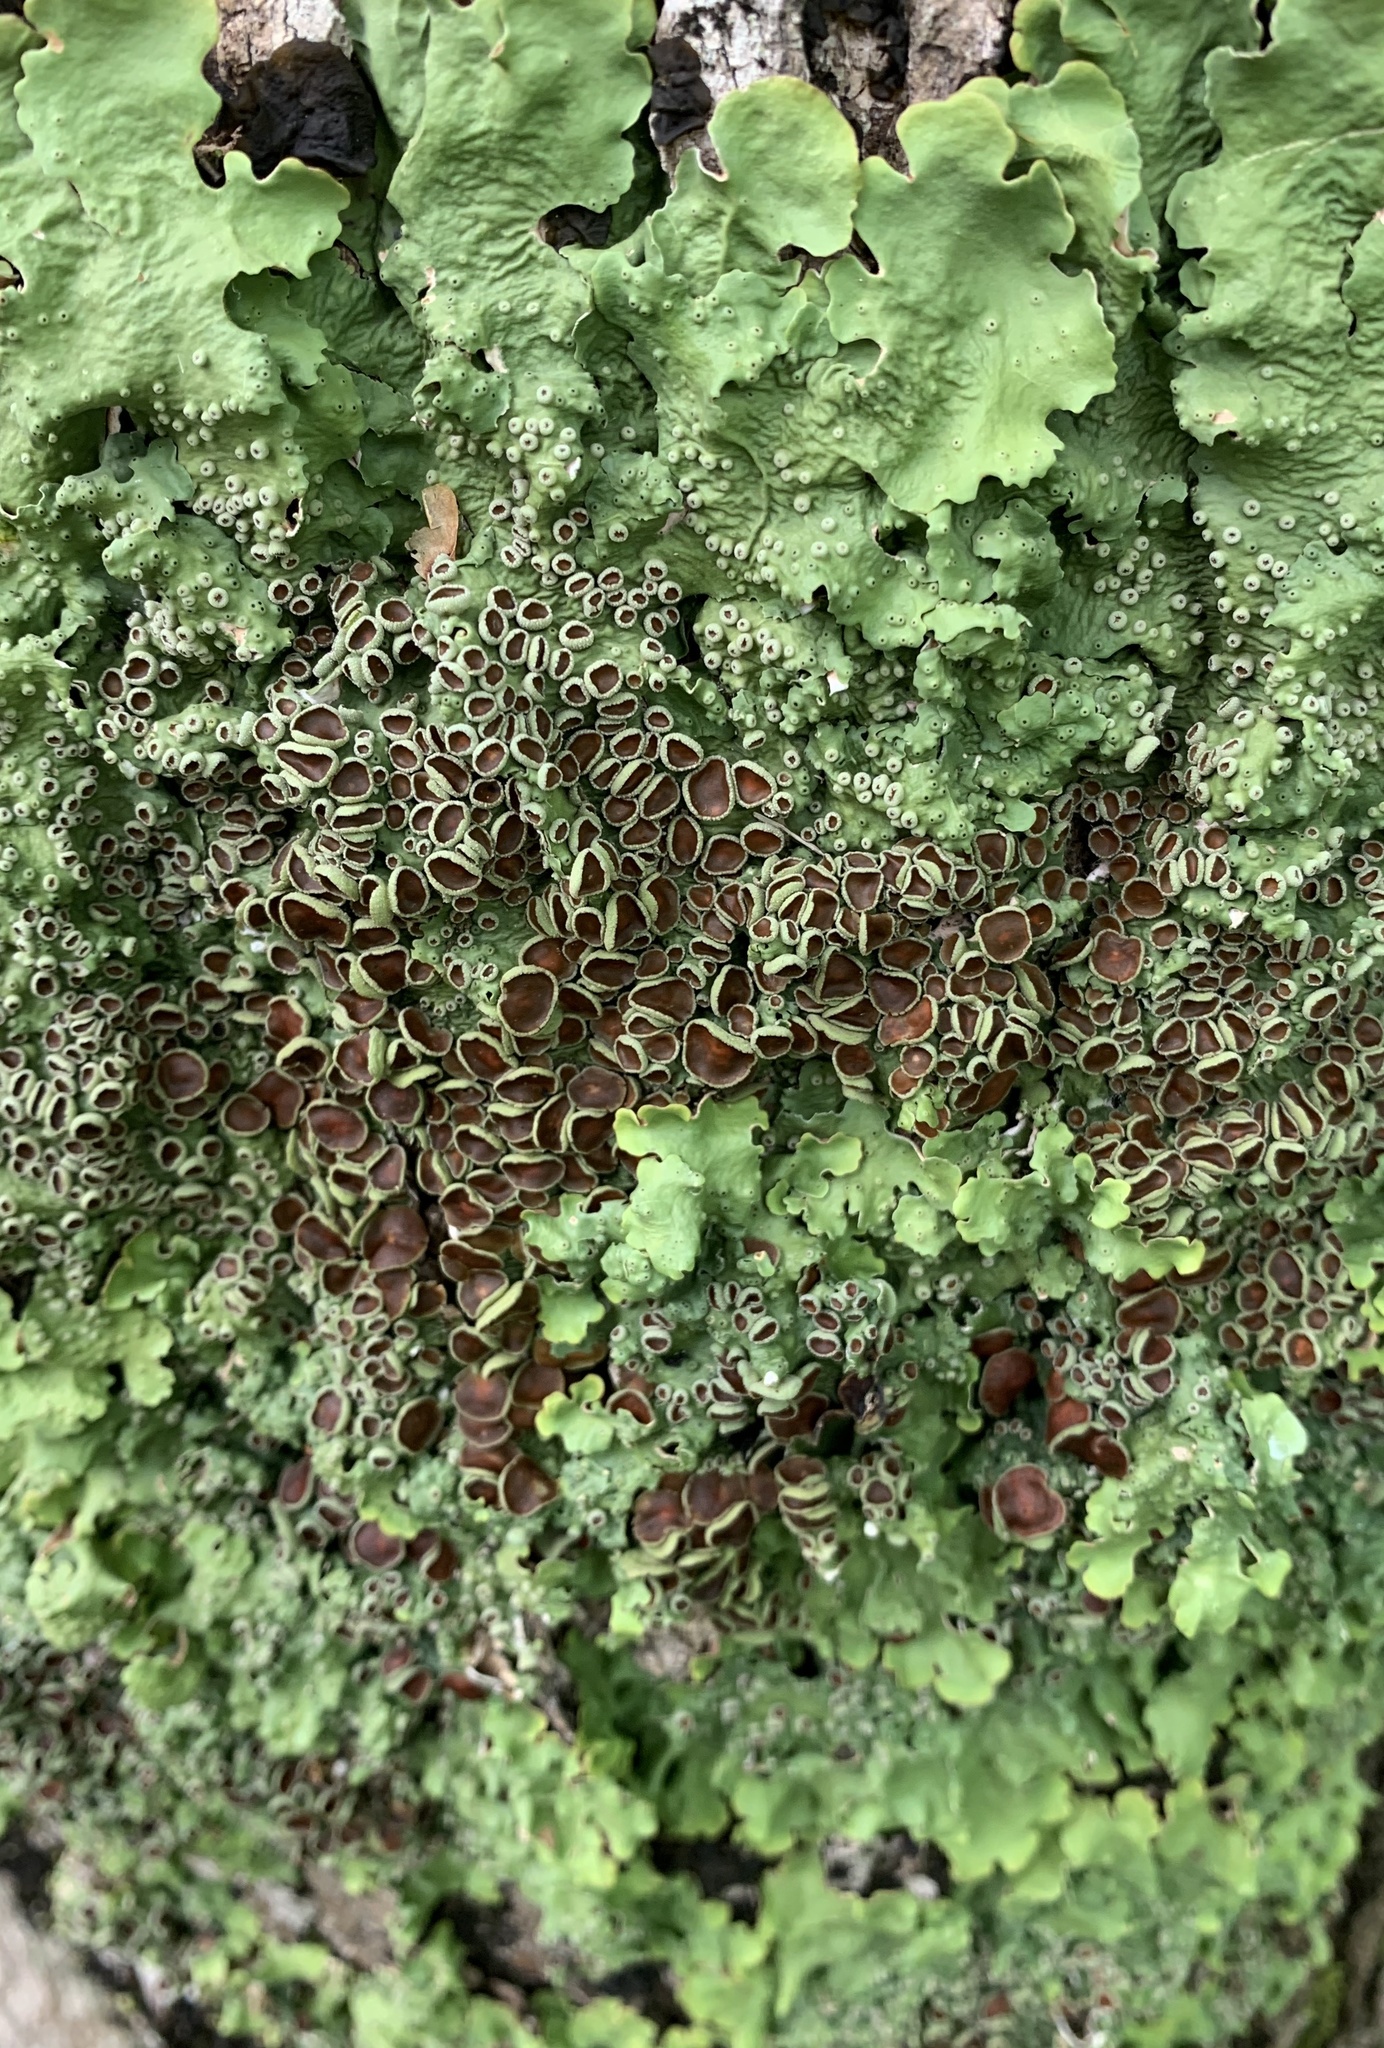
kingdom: Fungi
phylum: Ascomycota
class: Lecanoromycetes
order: Peltigerales
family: Lobariaceae
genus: Ricasolia
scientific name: Ricasolia quercizans
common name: Smooth lungwort
